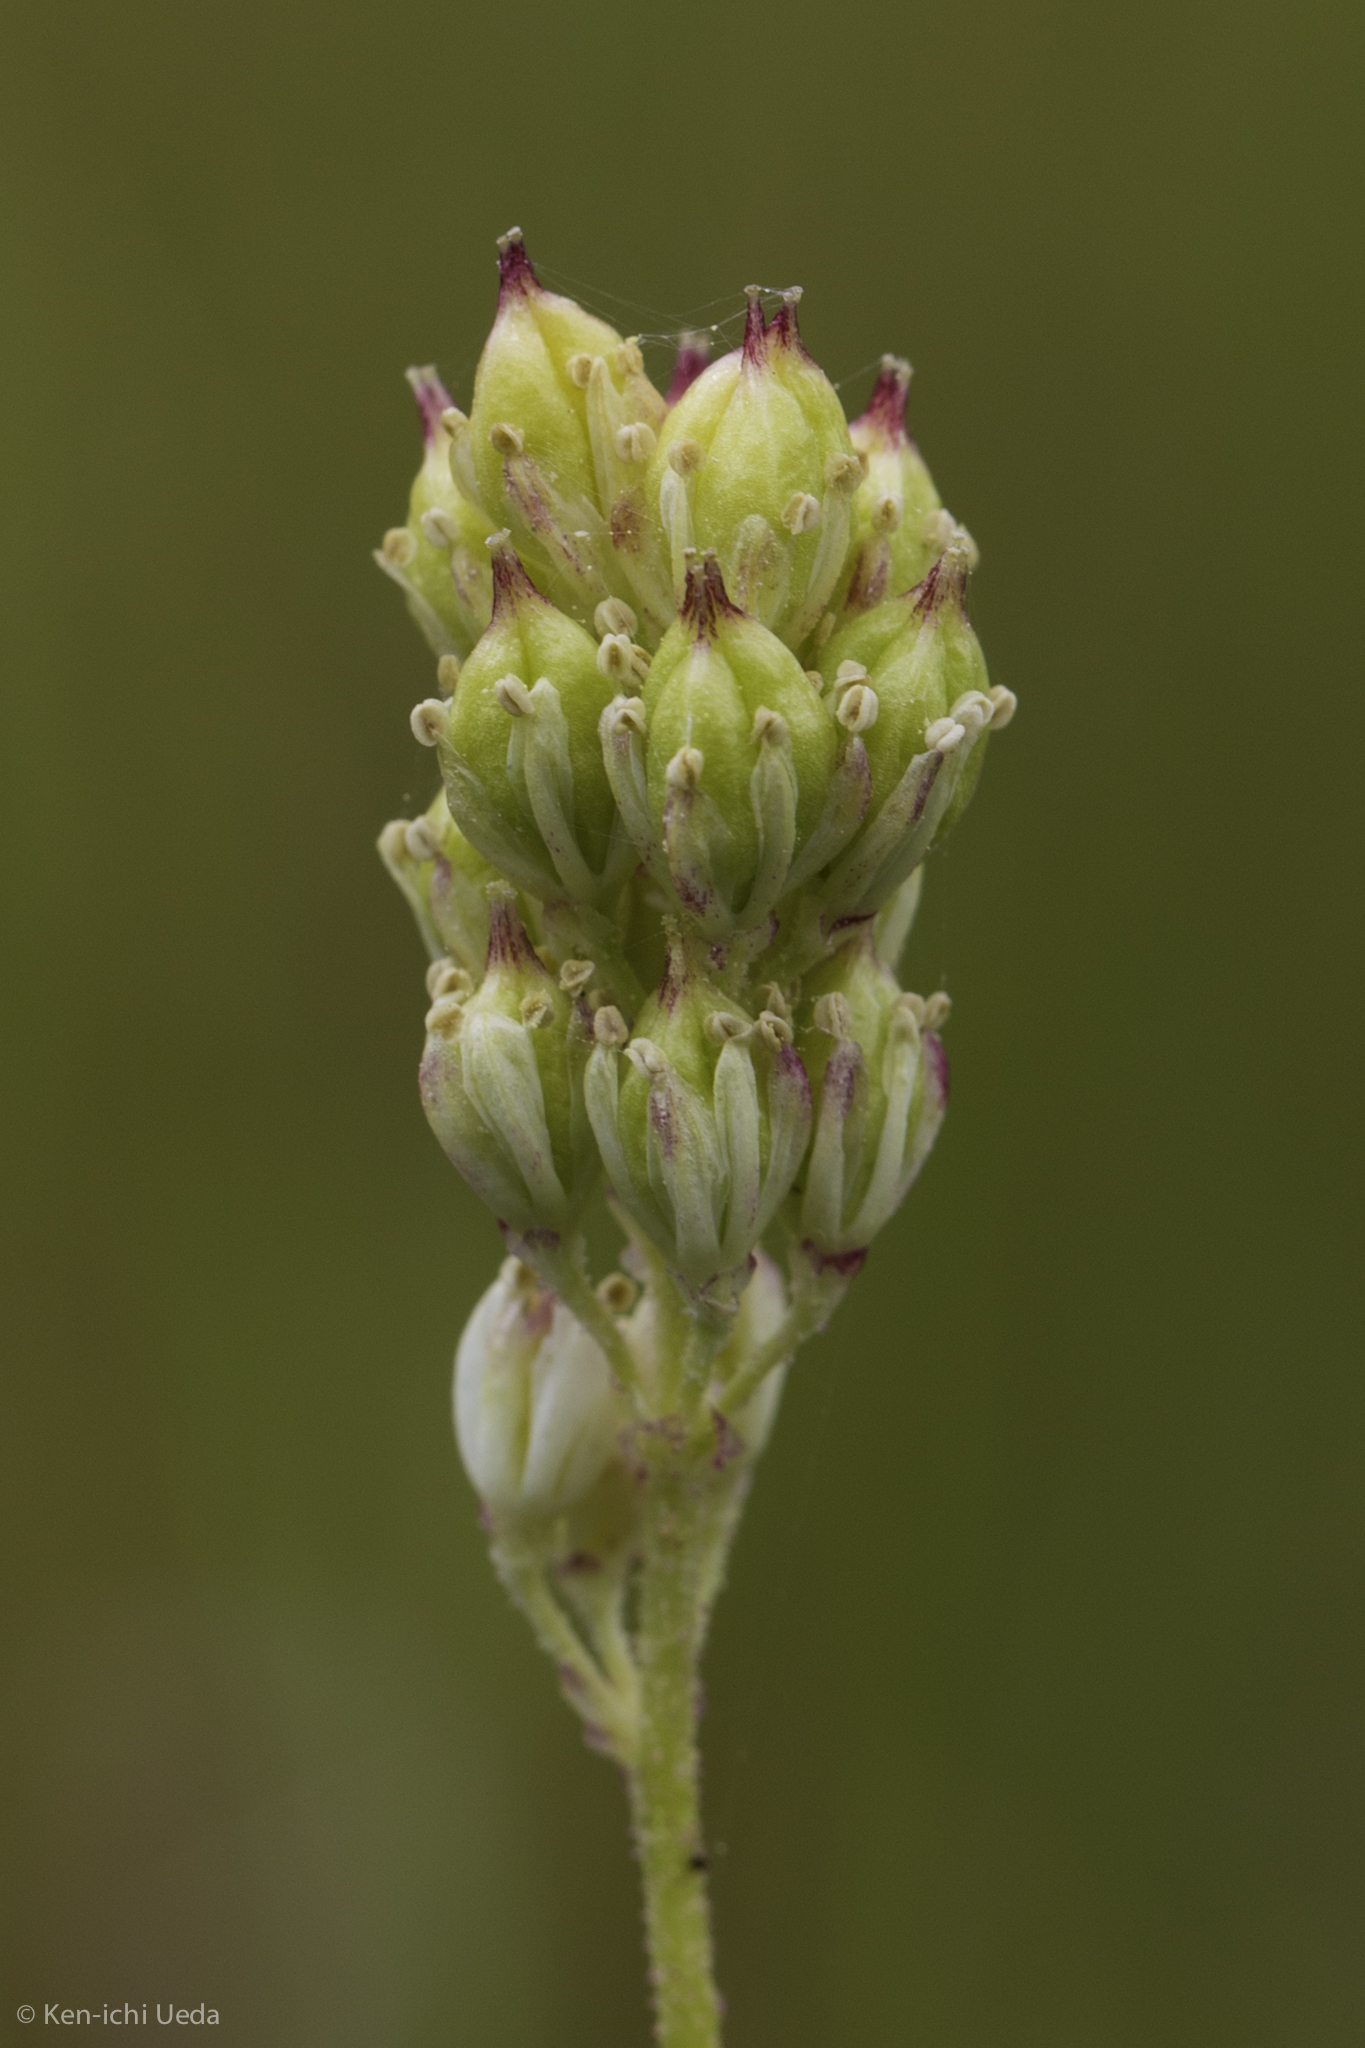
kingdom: Plantae
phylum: Tracheophyta
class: Liliopsida
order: Alismatales
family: Tofieldiaceae
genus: Triantha
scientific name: Triantha occidentalis
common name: Western false asphodel
